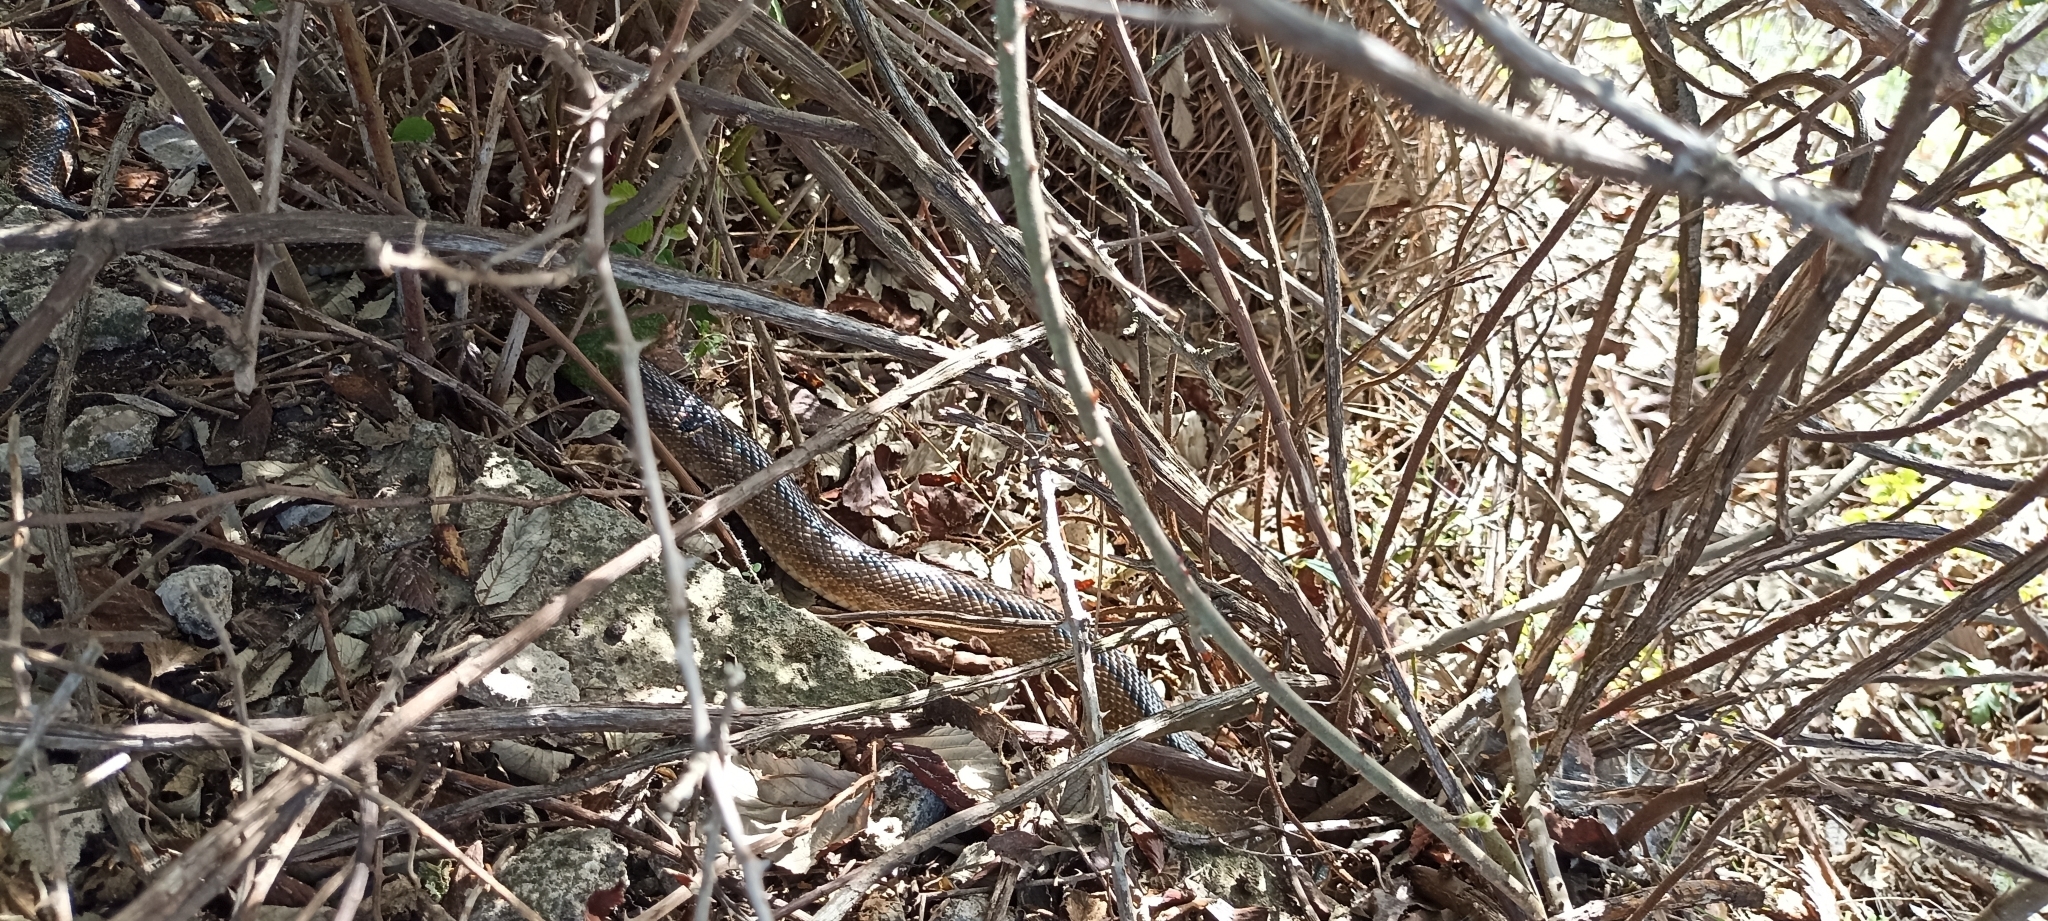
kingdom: Animalia
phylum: Chordata
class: Squamata
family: Colubridae
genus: Zamenis
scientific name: Zamenis scalaris
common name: Ladder snakes
